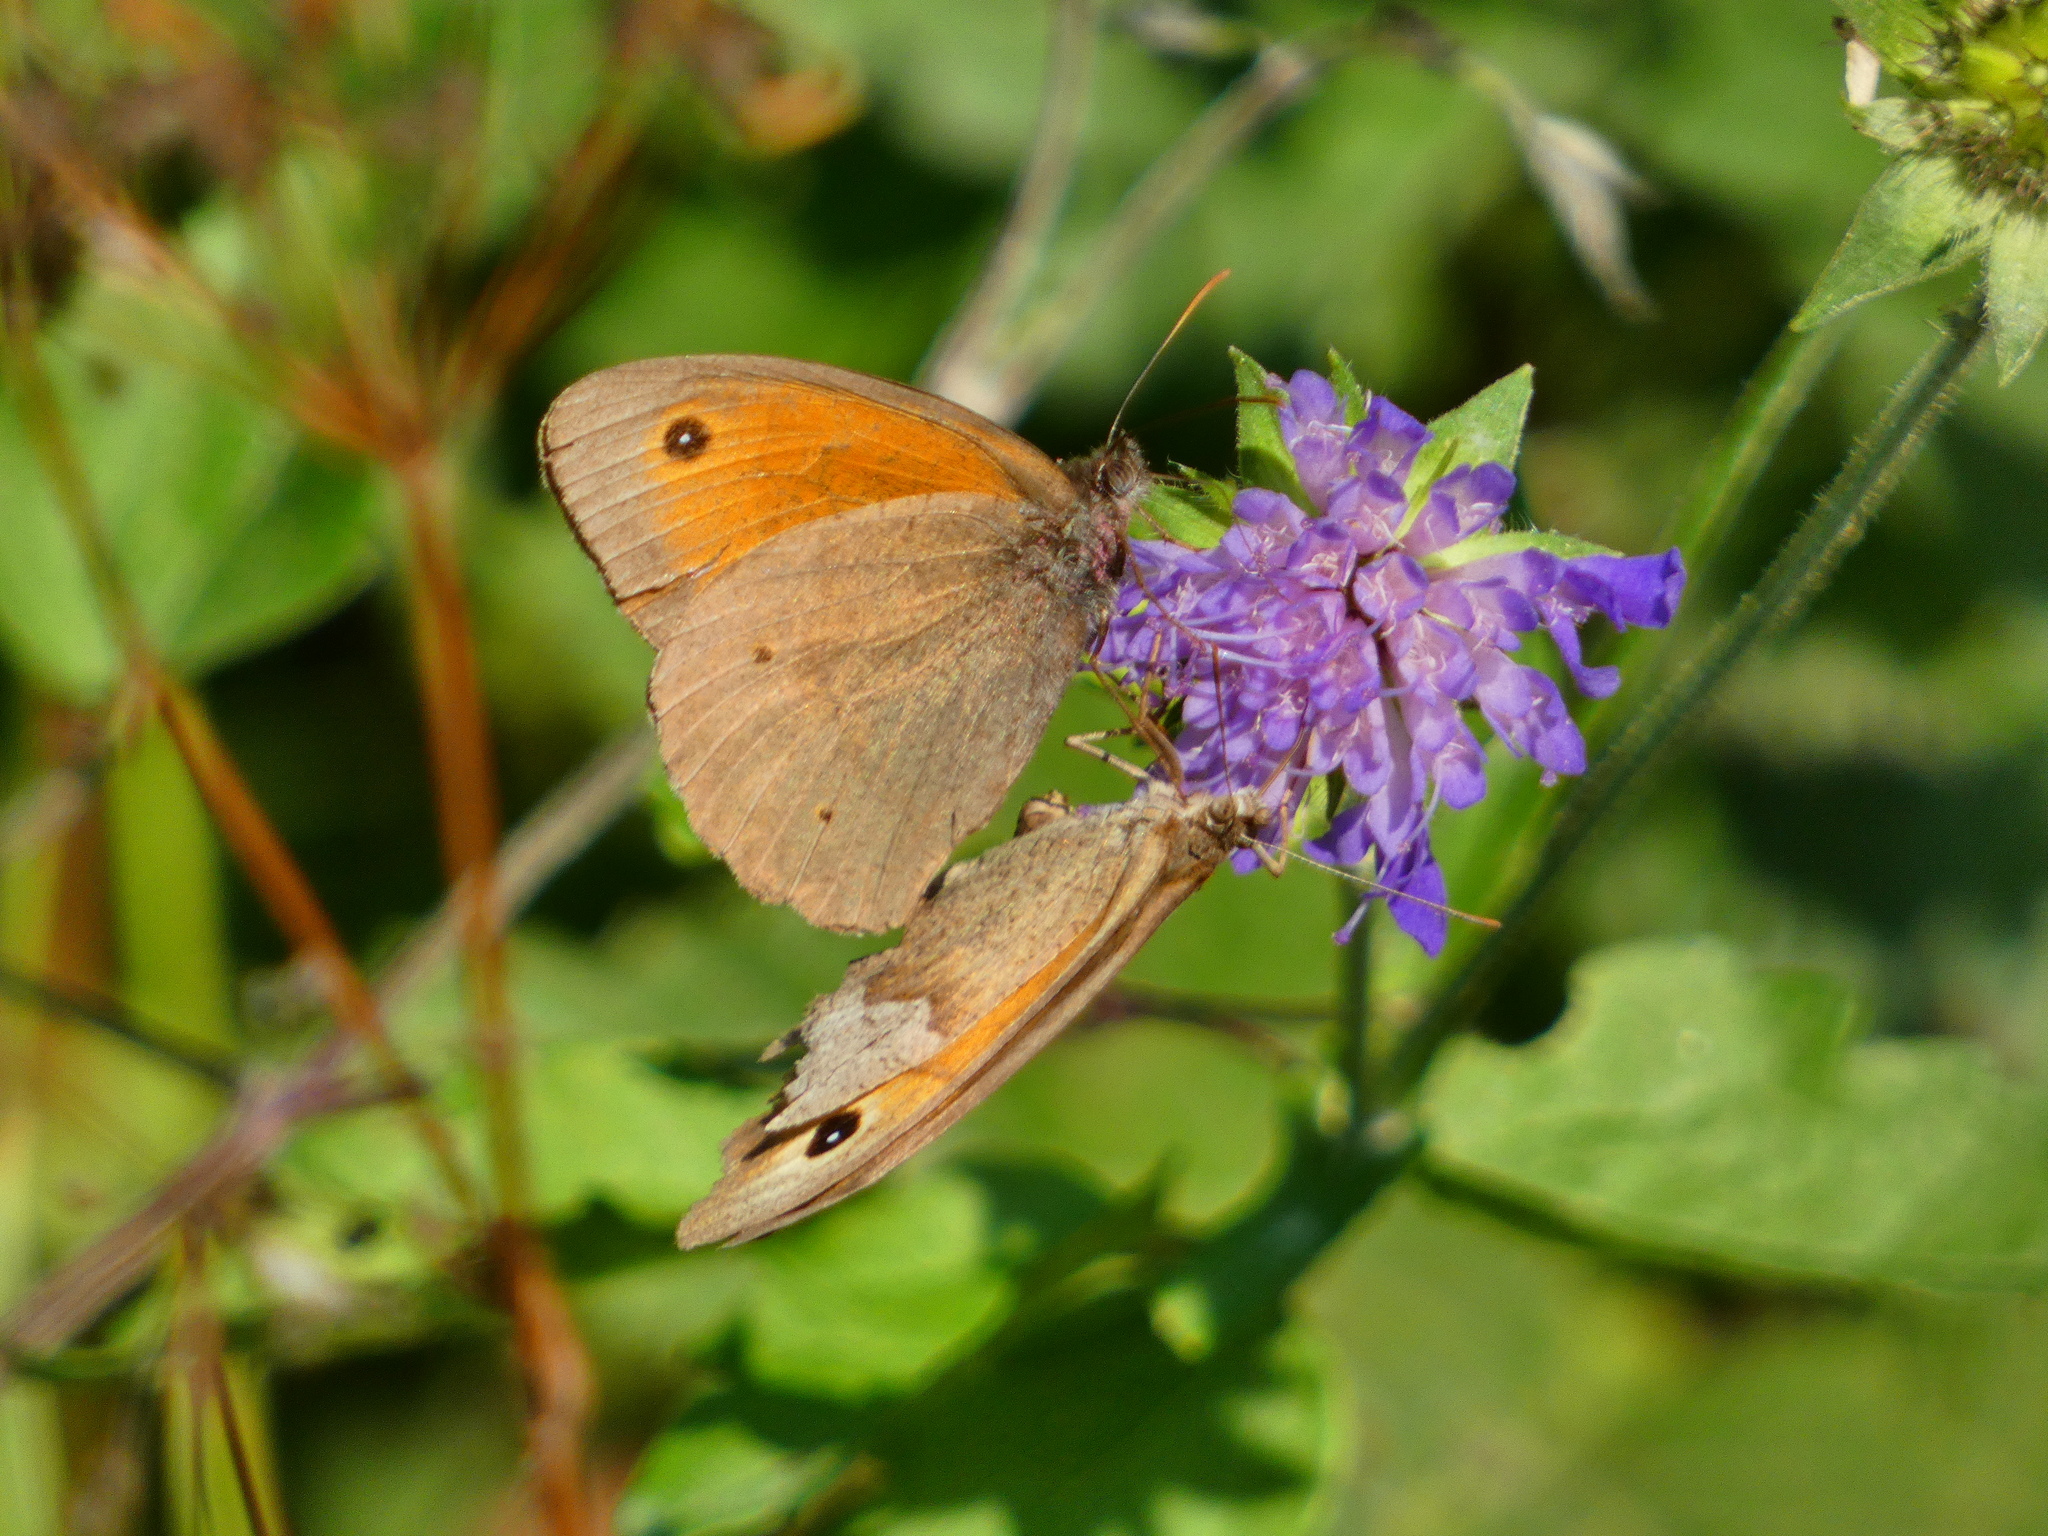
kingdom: Animalia
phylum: Arthropoda
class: Insecta
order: Lepidoptera
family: Nymphalidae
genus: Maniola
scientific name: Maniola jurtina
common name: Meadow brown
